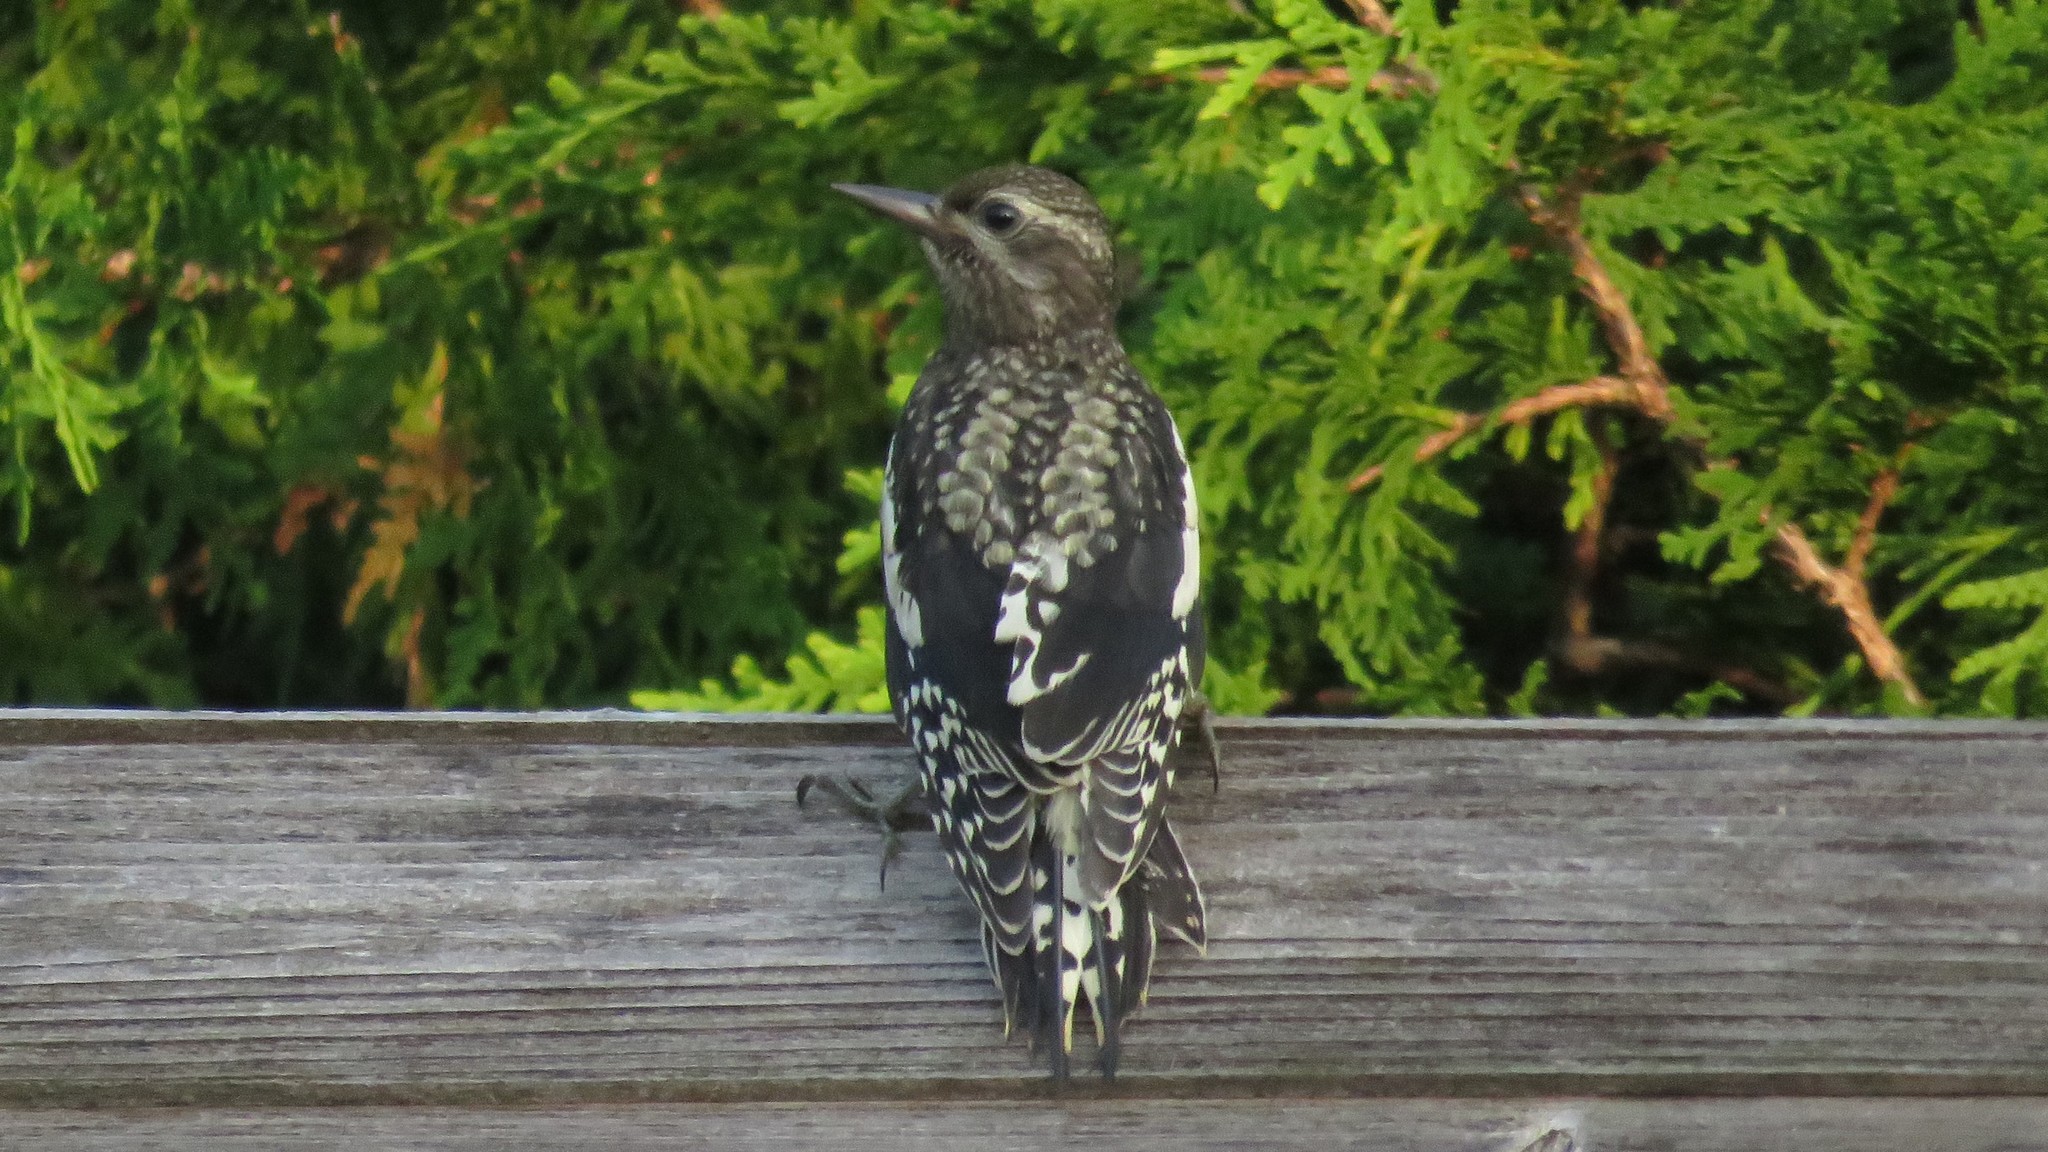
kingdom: Animalia
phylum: Chordata
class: Aves
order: Piciformes
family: Picidae
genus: Sphyrapicus
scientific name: Sphyrapicus varius
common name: Yellow-bellied sapsucker
